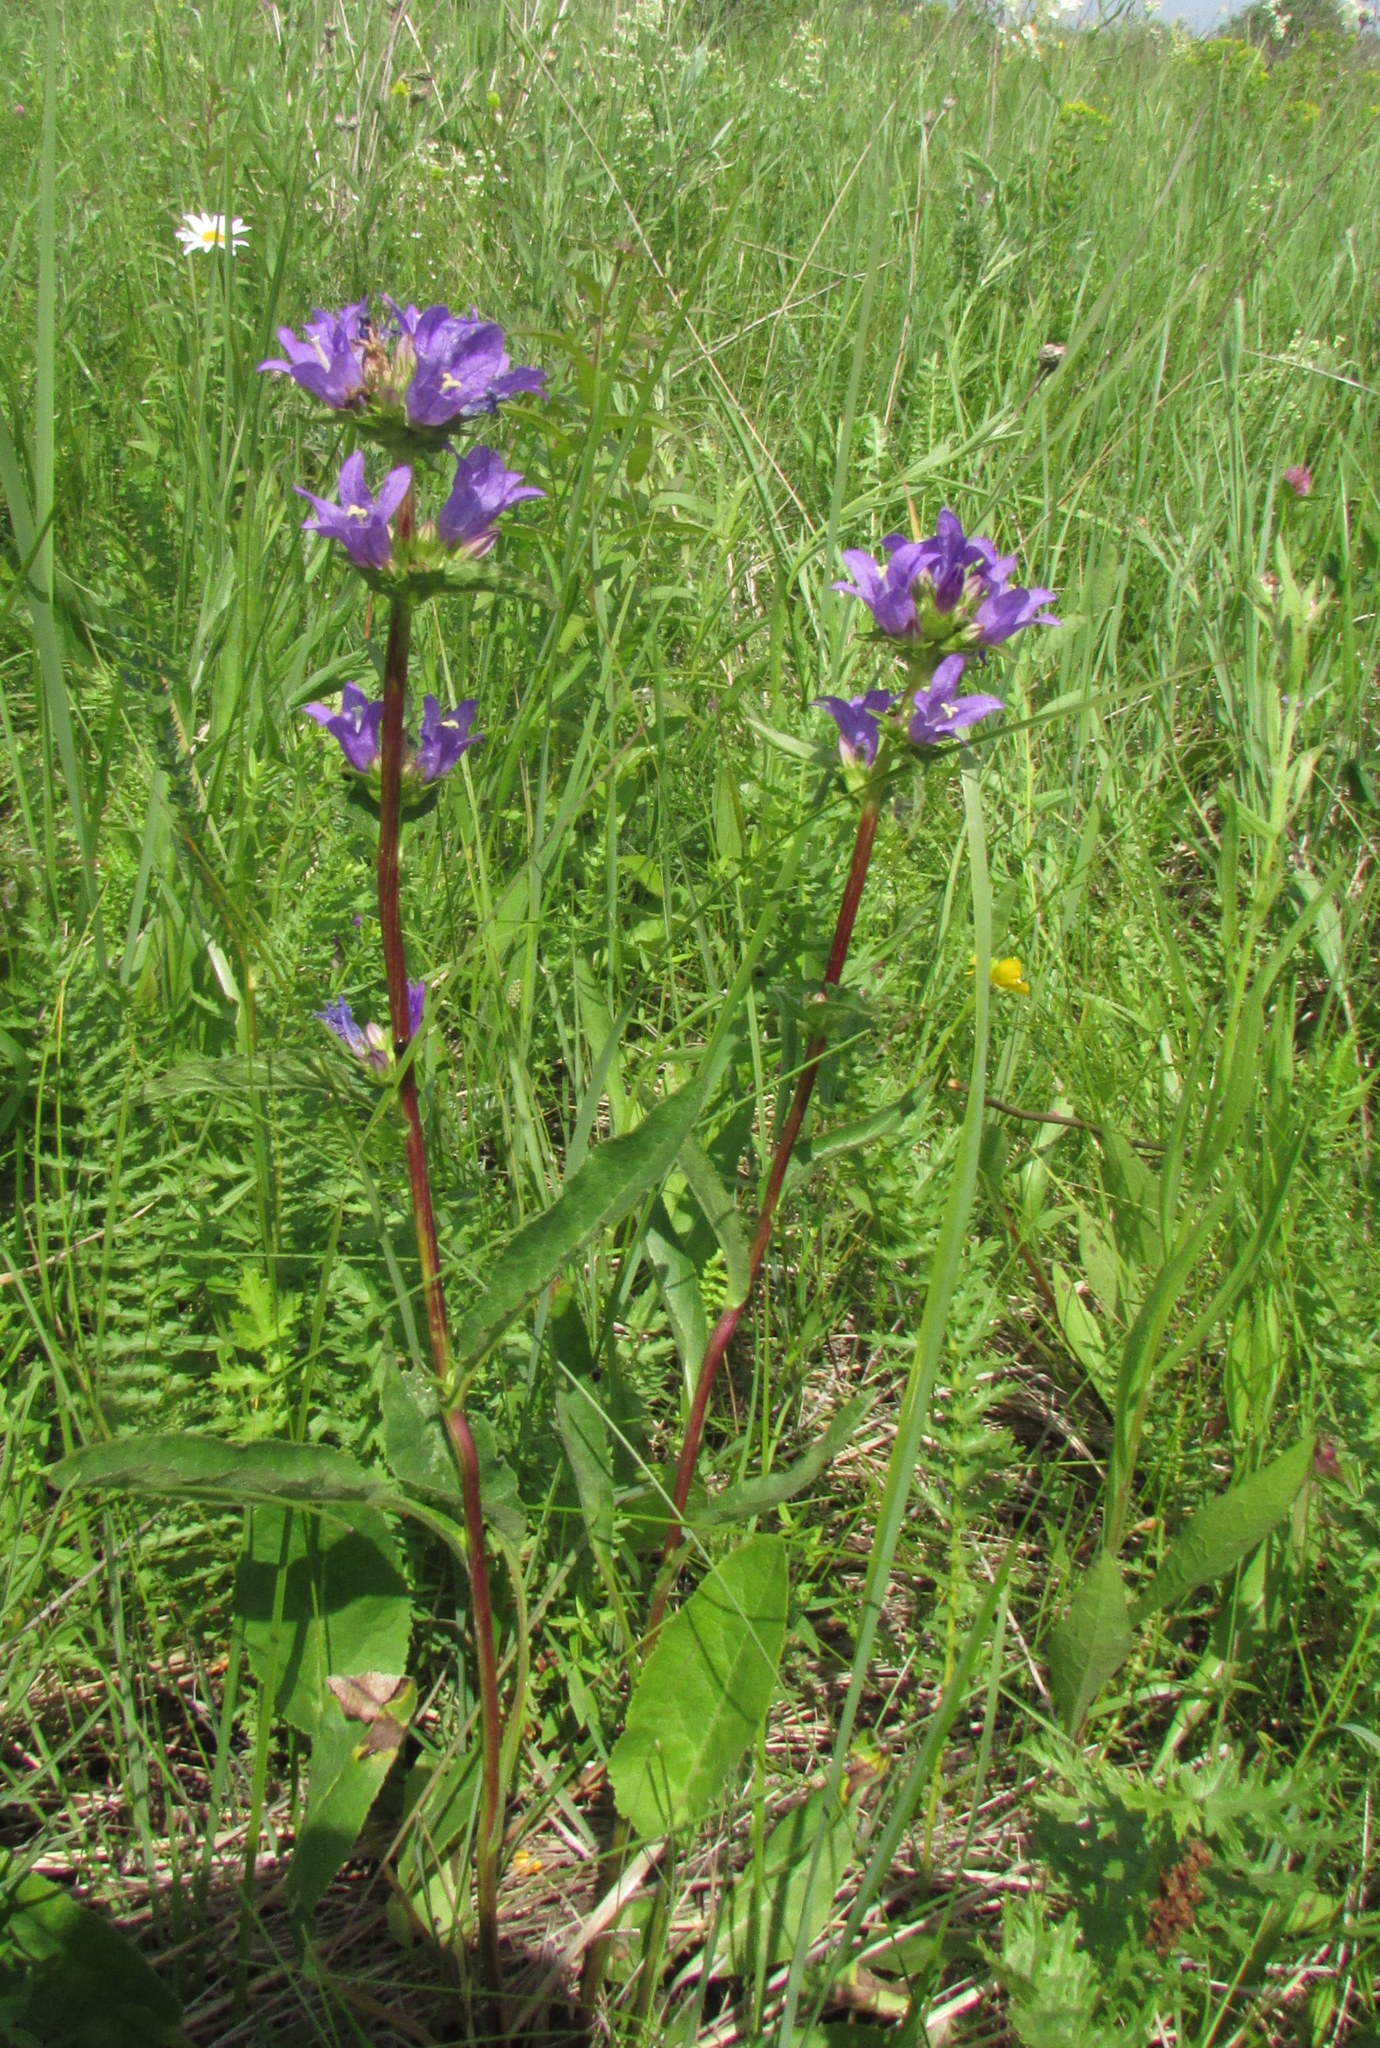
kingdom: Plantae
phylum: Tracheophyta
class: Magnoliopsida
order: Asterales
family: Campanulaceae
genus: Campanula
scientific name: Campanula glomerata
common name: Clustered bellflower
